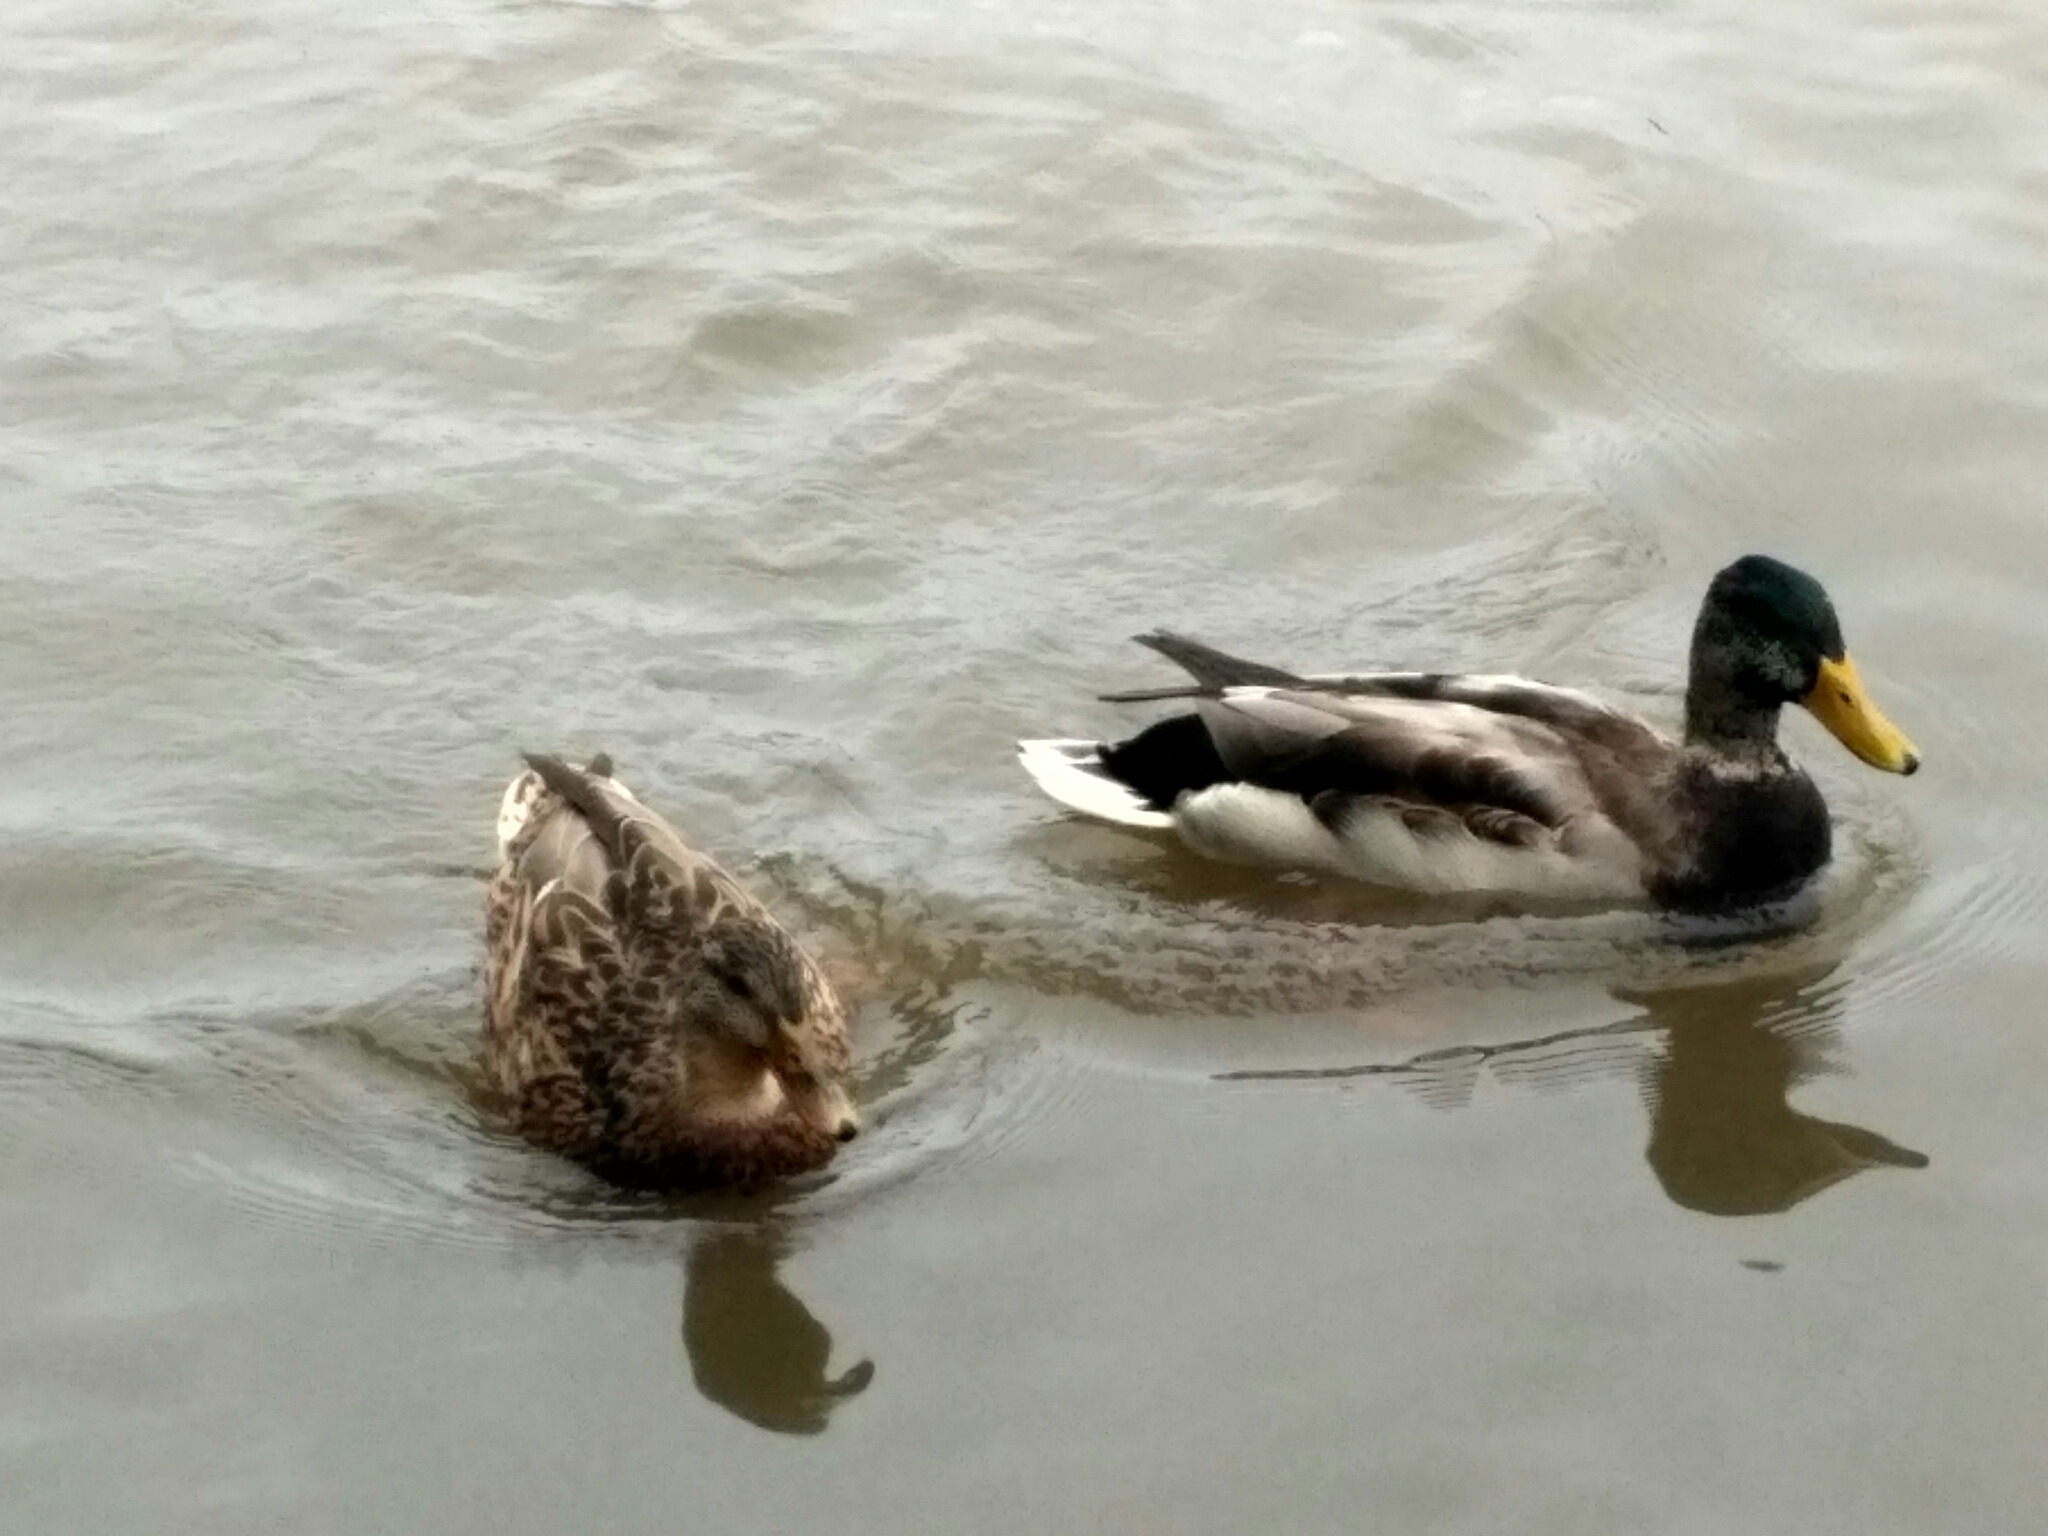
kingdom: Animalia
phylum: Chordata
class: Aves
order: Anseriformes
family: Anatidae
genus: Anas
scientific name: Anas platyrhynchos
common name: Mallard
